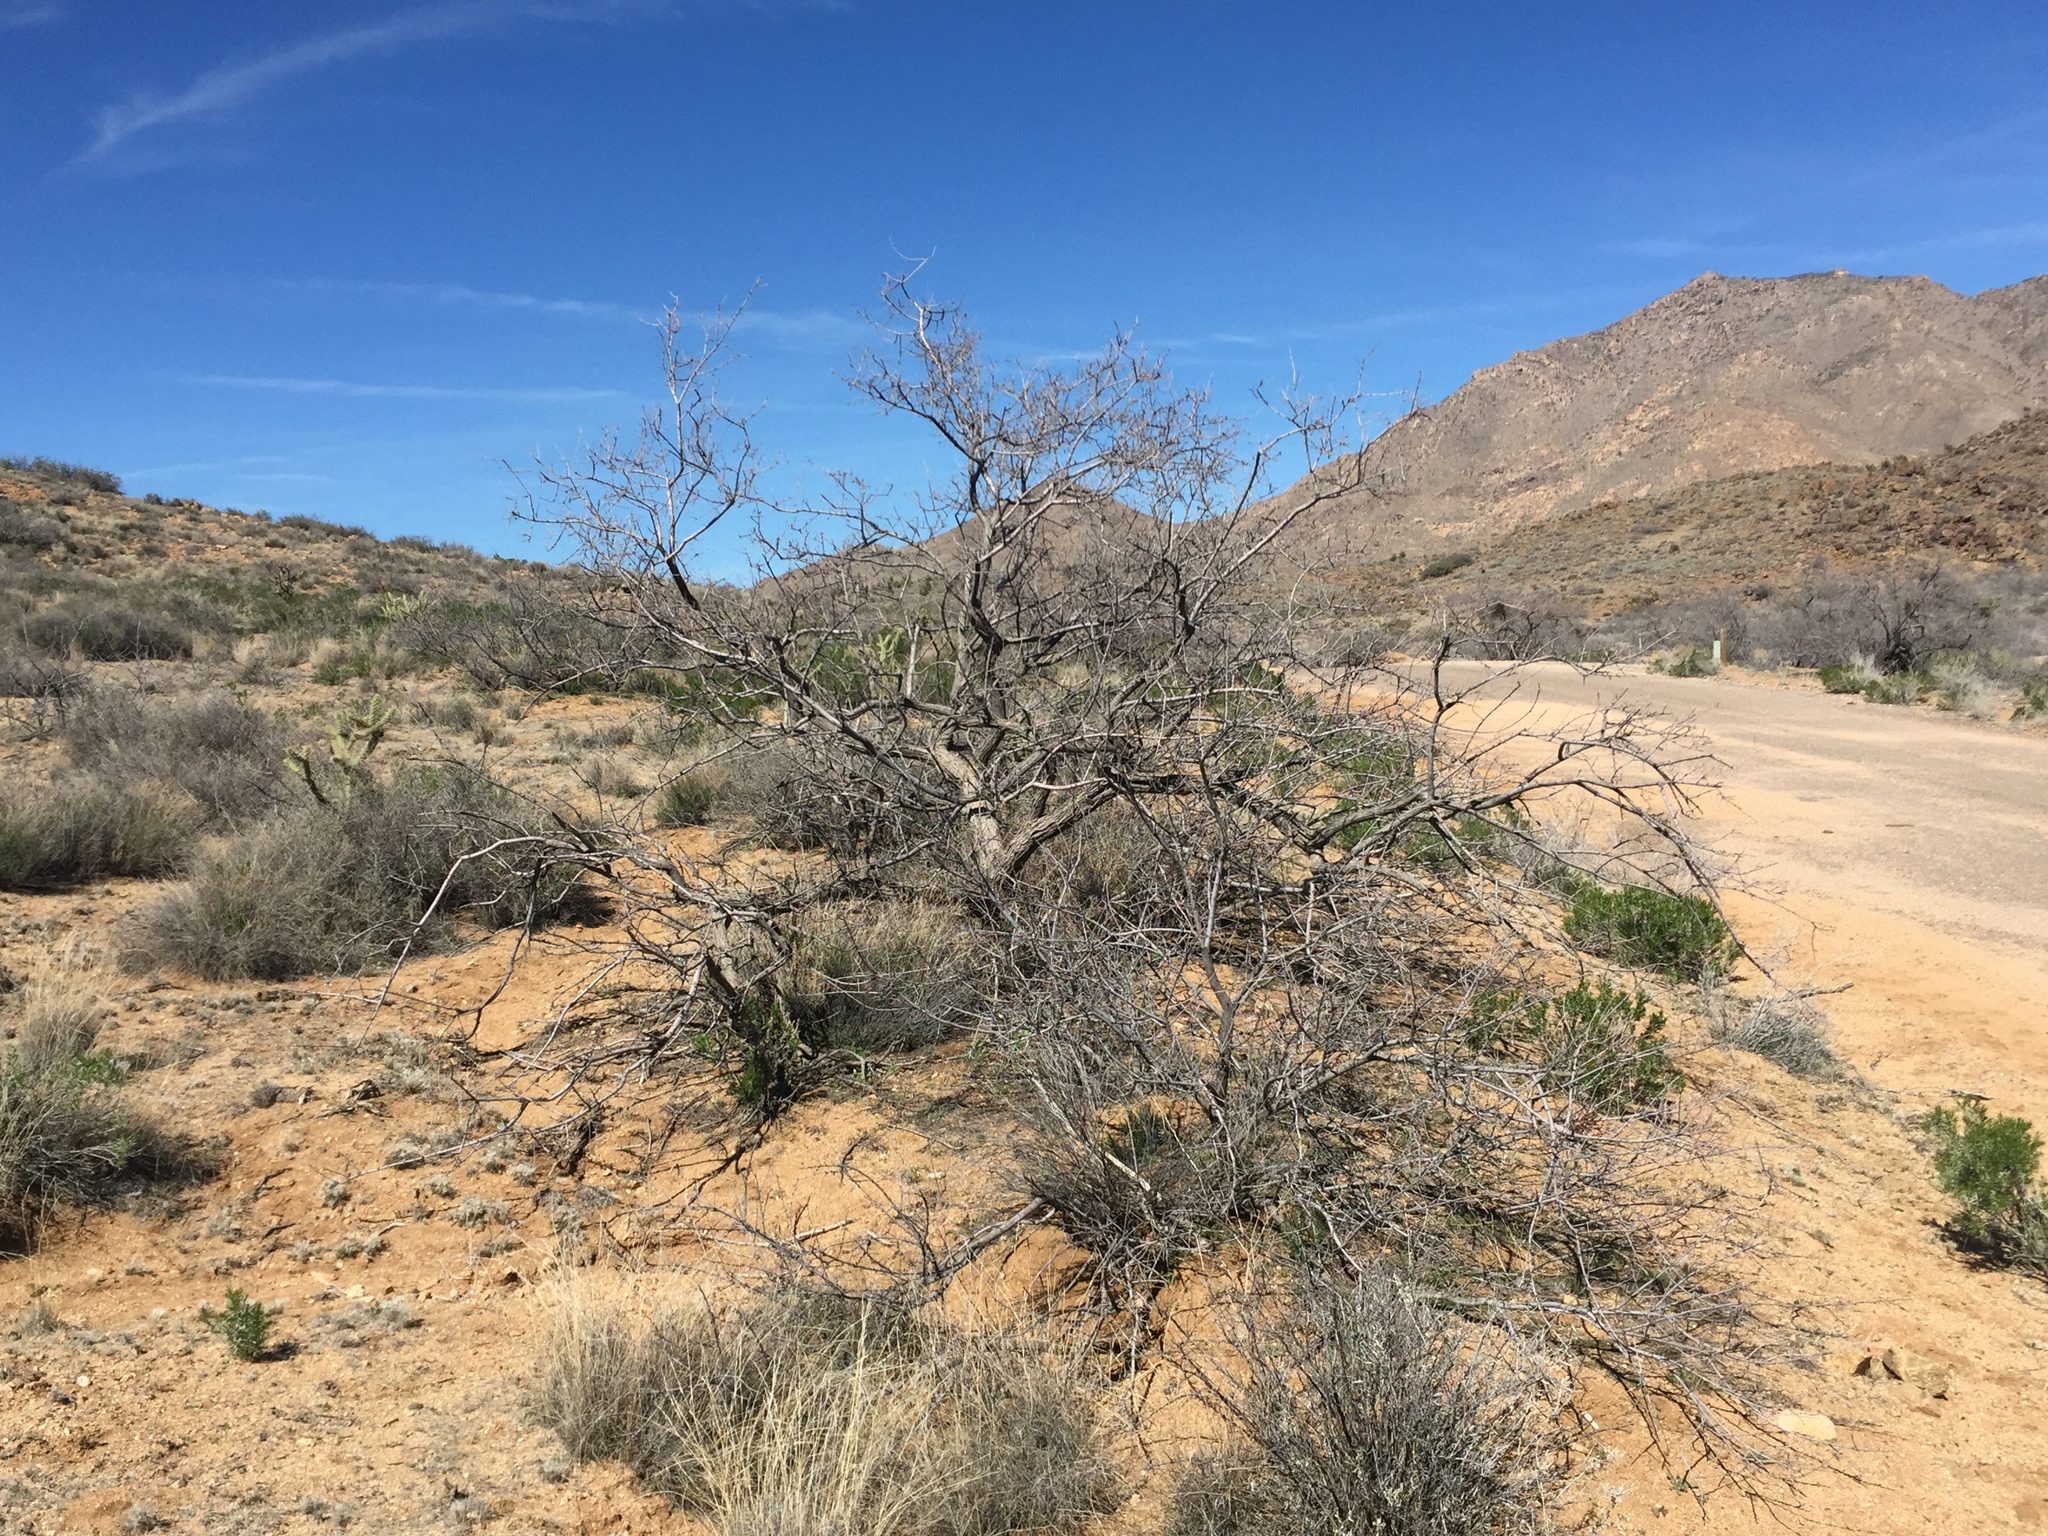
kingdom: Plantae
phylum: Tracheophyta
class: Magnoliopsida
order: Fabales
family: Fabaceae
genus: Senegalia
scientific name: Senegalia greggii
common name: Texas-mimosa
